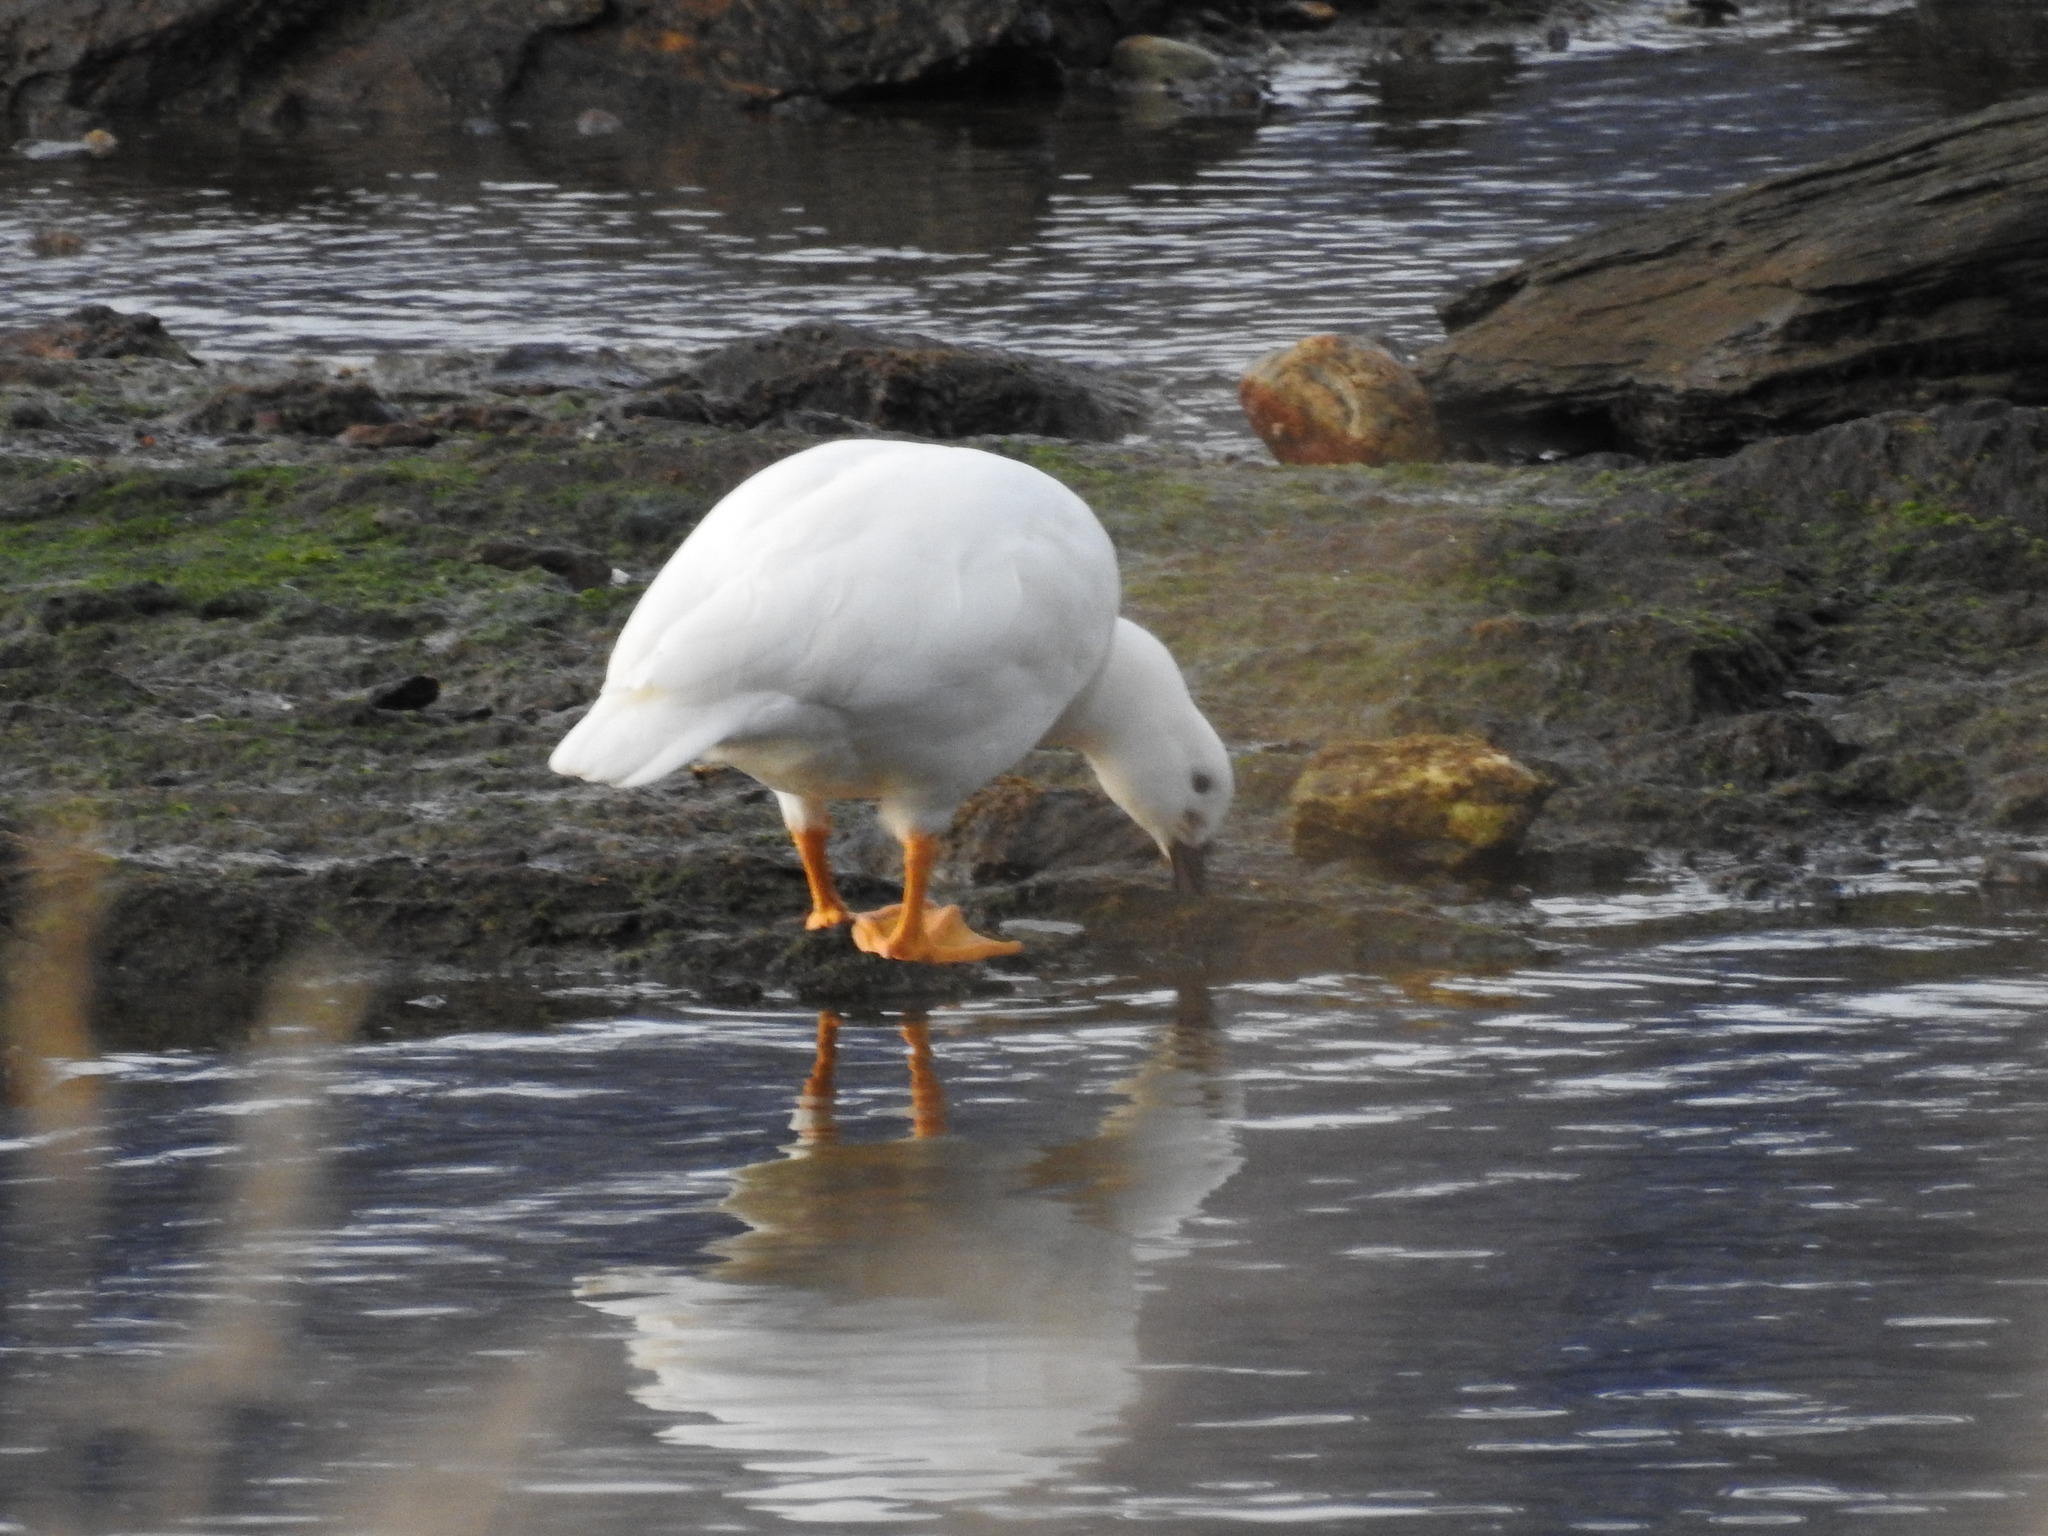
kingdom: Animalia
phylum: Chordata
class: Aves
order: Anseriformes
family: Anatidae
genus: Chloephaga
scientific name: Chloephaga hybrida
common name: Kelp goose
